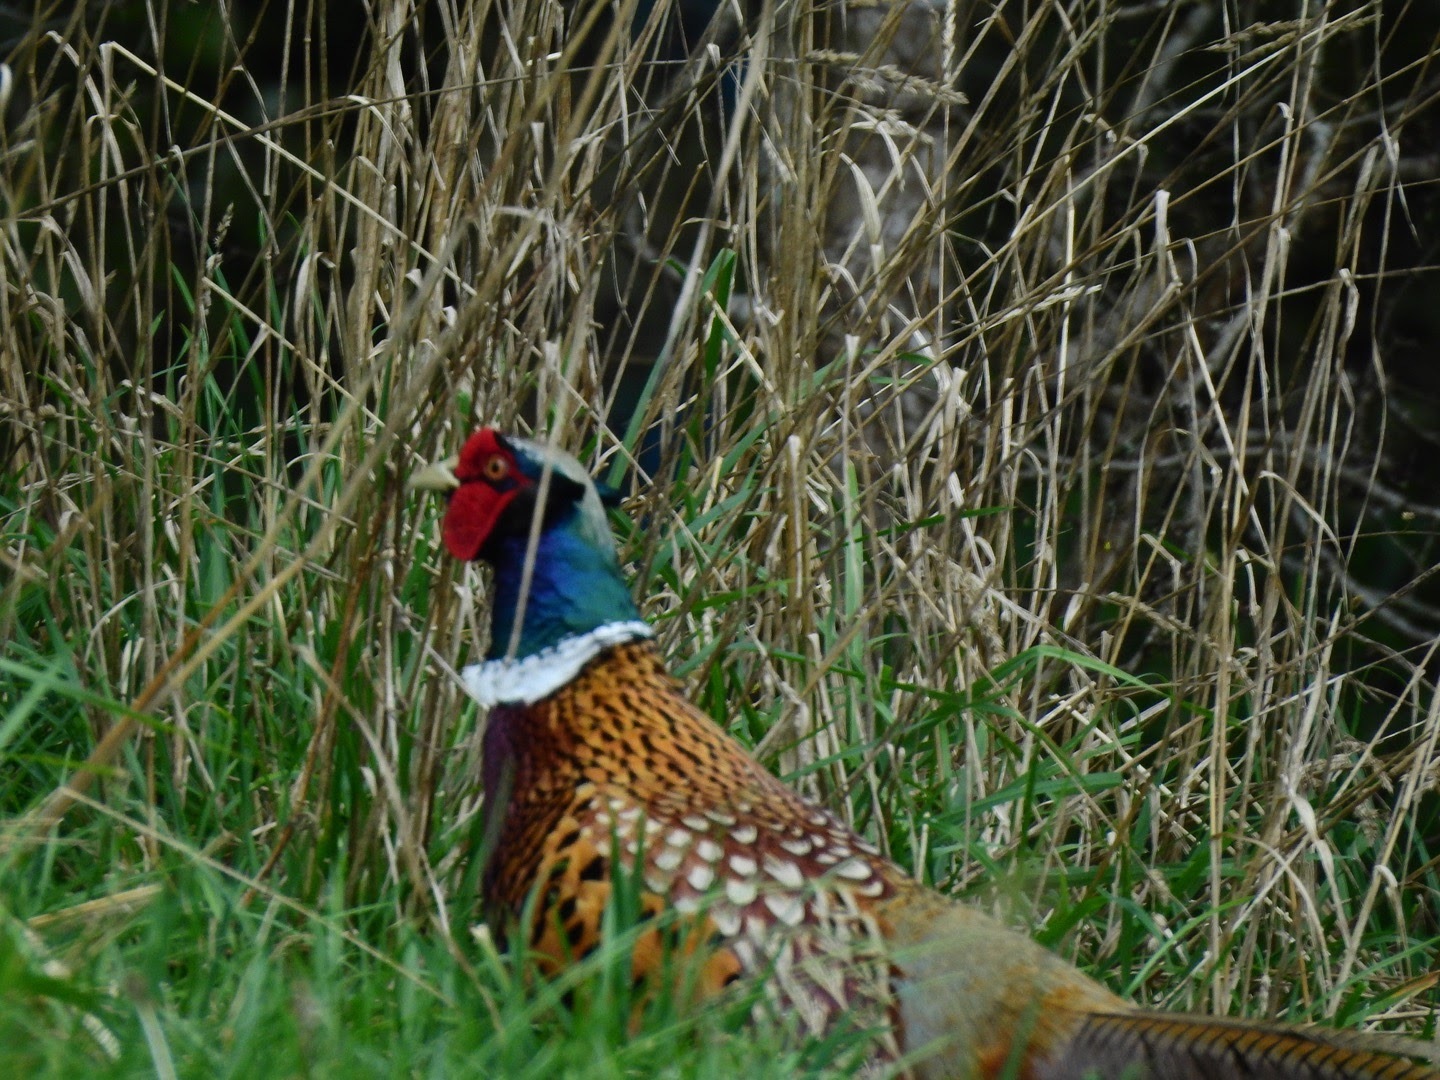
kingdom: Animalia
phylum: Chordata
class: Aves
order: Galliformes
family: Phasianidae
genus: Phasianus
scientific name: Phasianus colchicus
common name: Common pheasant
